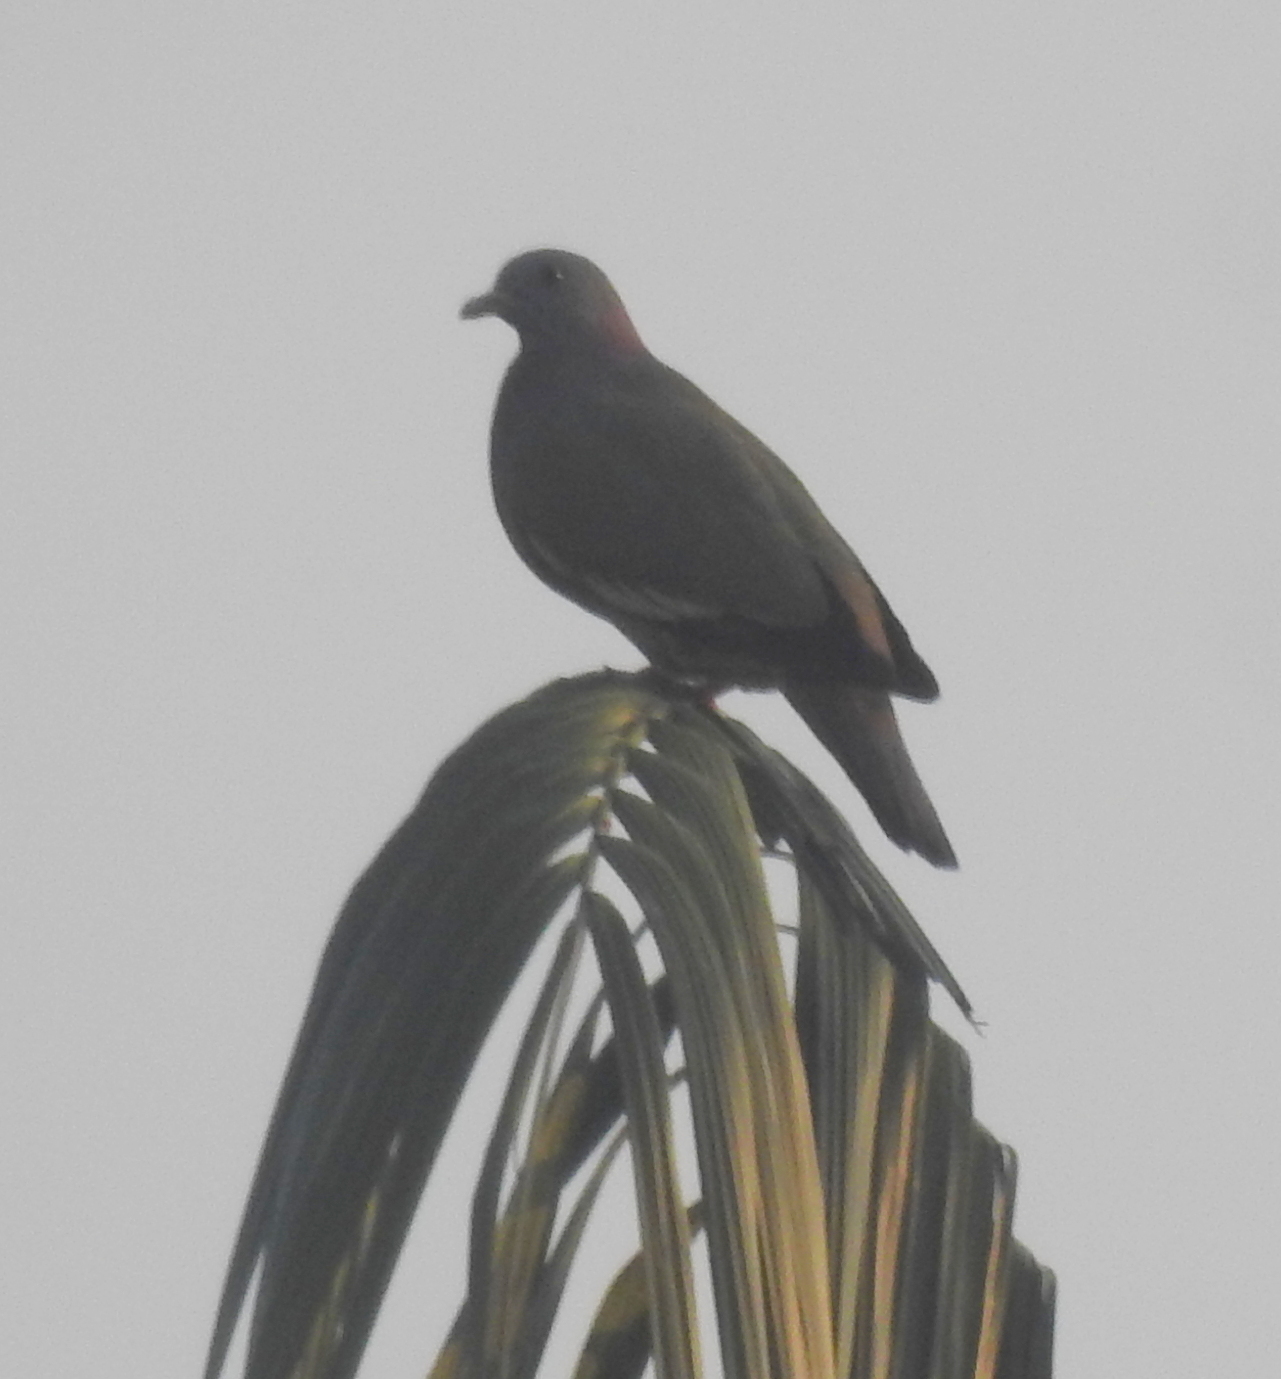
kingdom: Animalia
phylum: Chordata
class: Aves
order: Columbiformes
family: Columbidae
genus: Treron
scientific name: Treron vernans
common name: Pink-necked green pigeon
